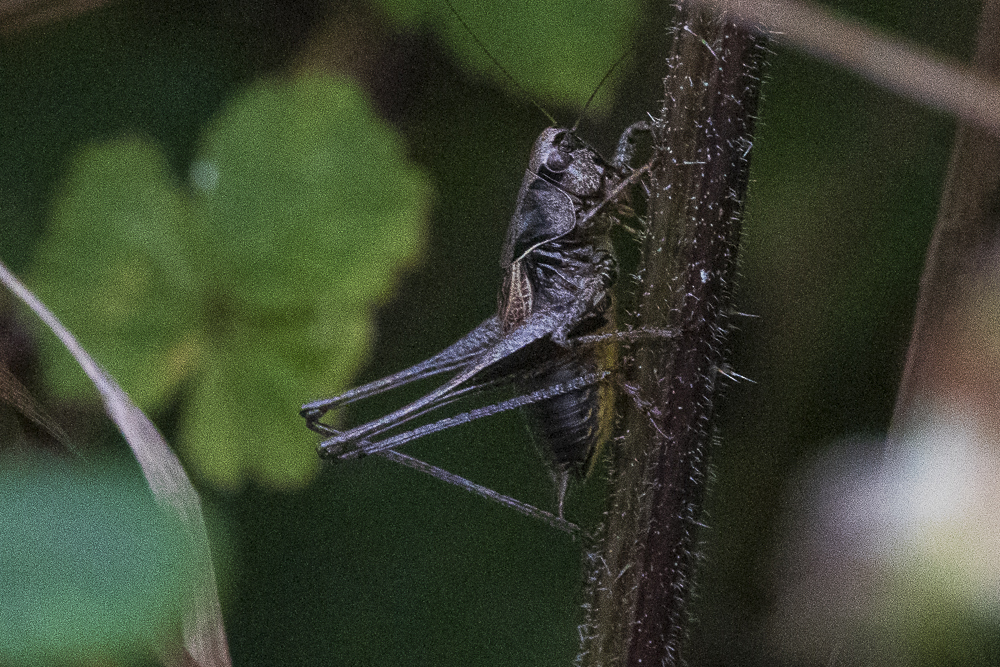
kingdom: Animalia
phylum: Arthropoda
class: Insecta
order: Orthoptera
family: Tettigoniidae
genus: Pholidoptera
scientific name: Pholidoptera griseoaptera
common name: Dark bush-cricket
